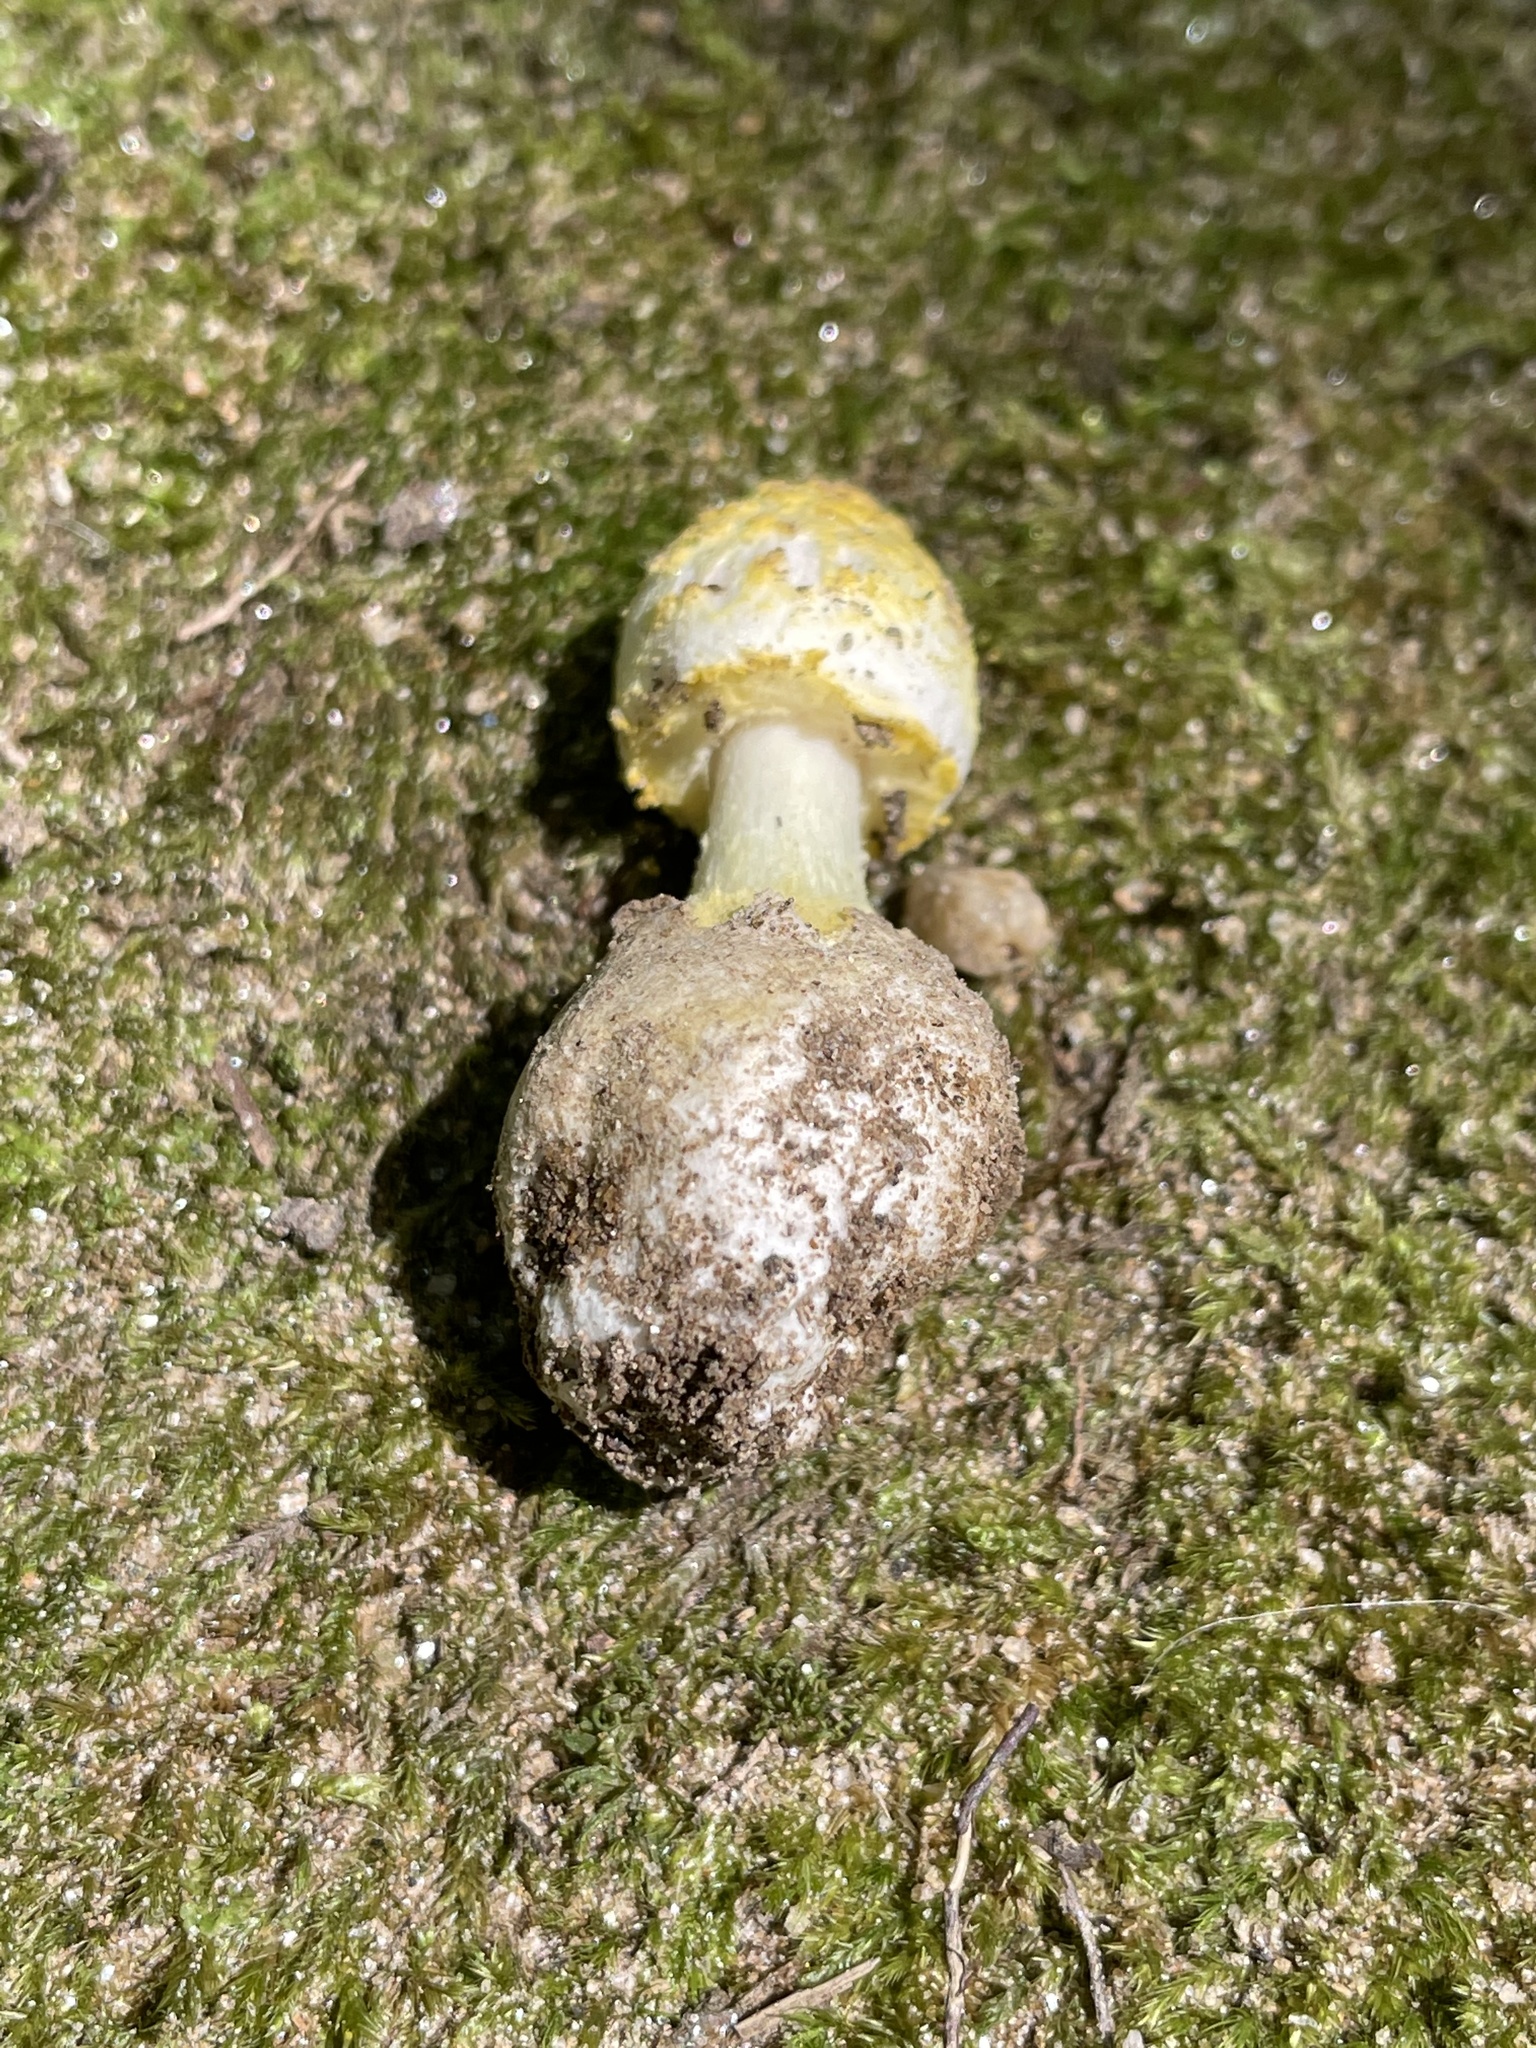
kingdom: Fungi
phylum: Basidiomycota
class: Agaricomycetes
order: Agaricales
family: Amanitaceae
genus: Amanita
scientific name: Amanita levistriata
